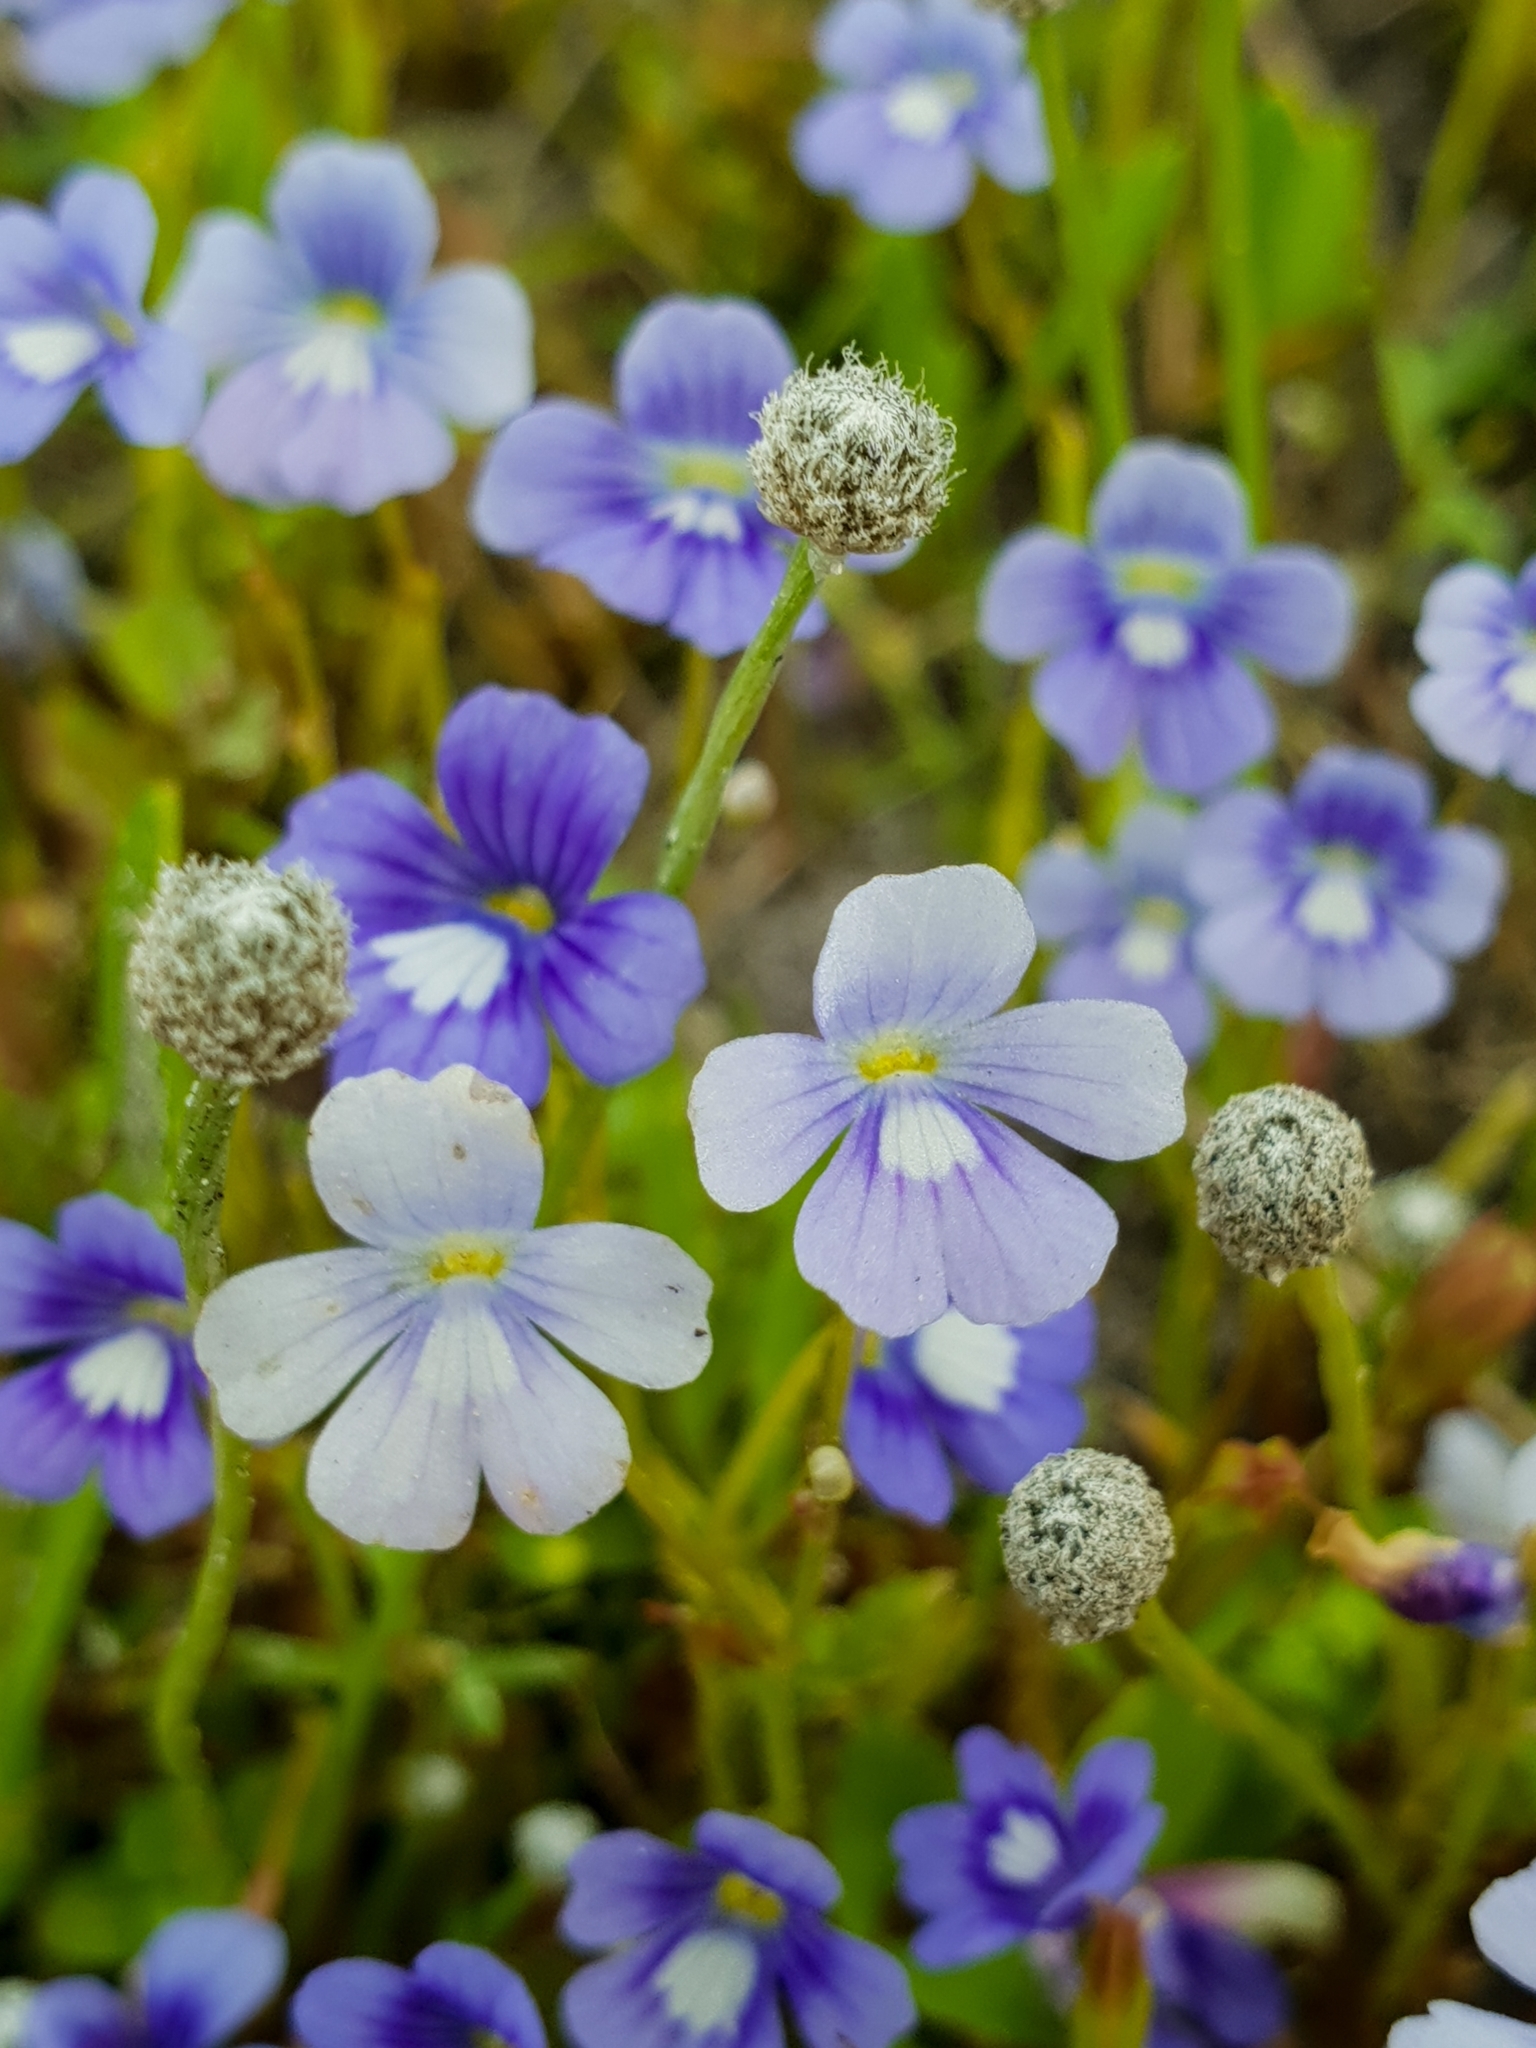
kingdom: Plantae
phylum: Tracheophyta
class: Magnoliopsida
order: Lamiales
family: Plantaginaceae
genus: Dopatrium
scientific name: Dopatrium nudicaule
